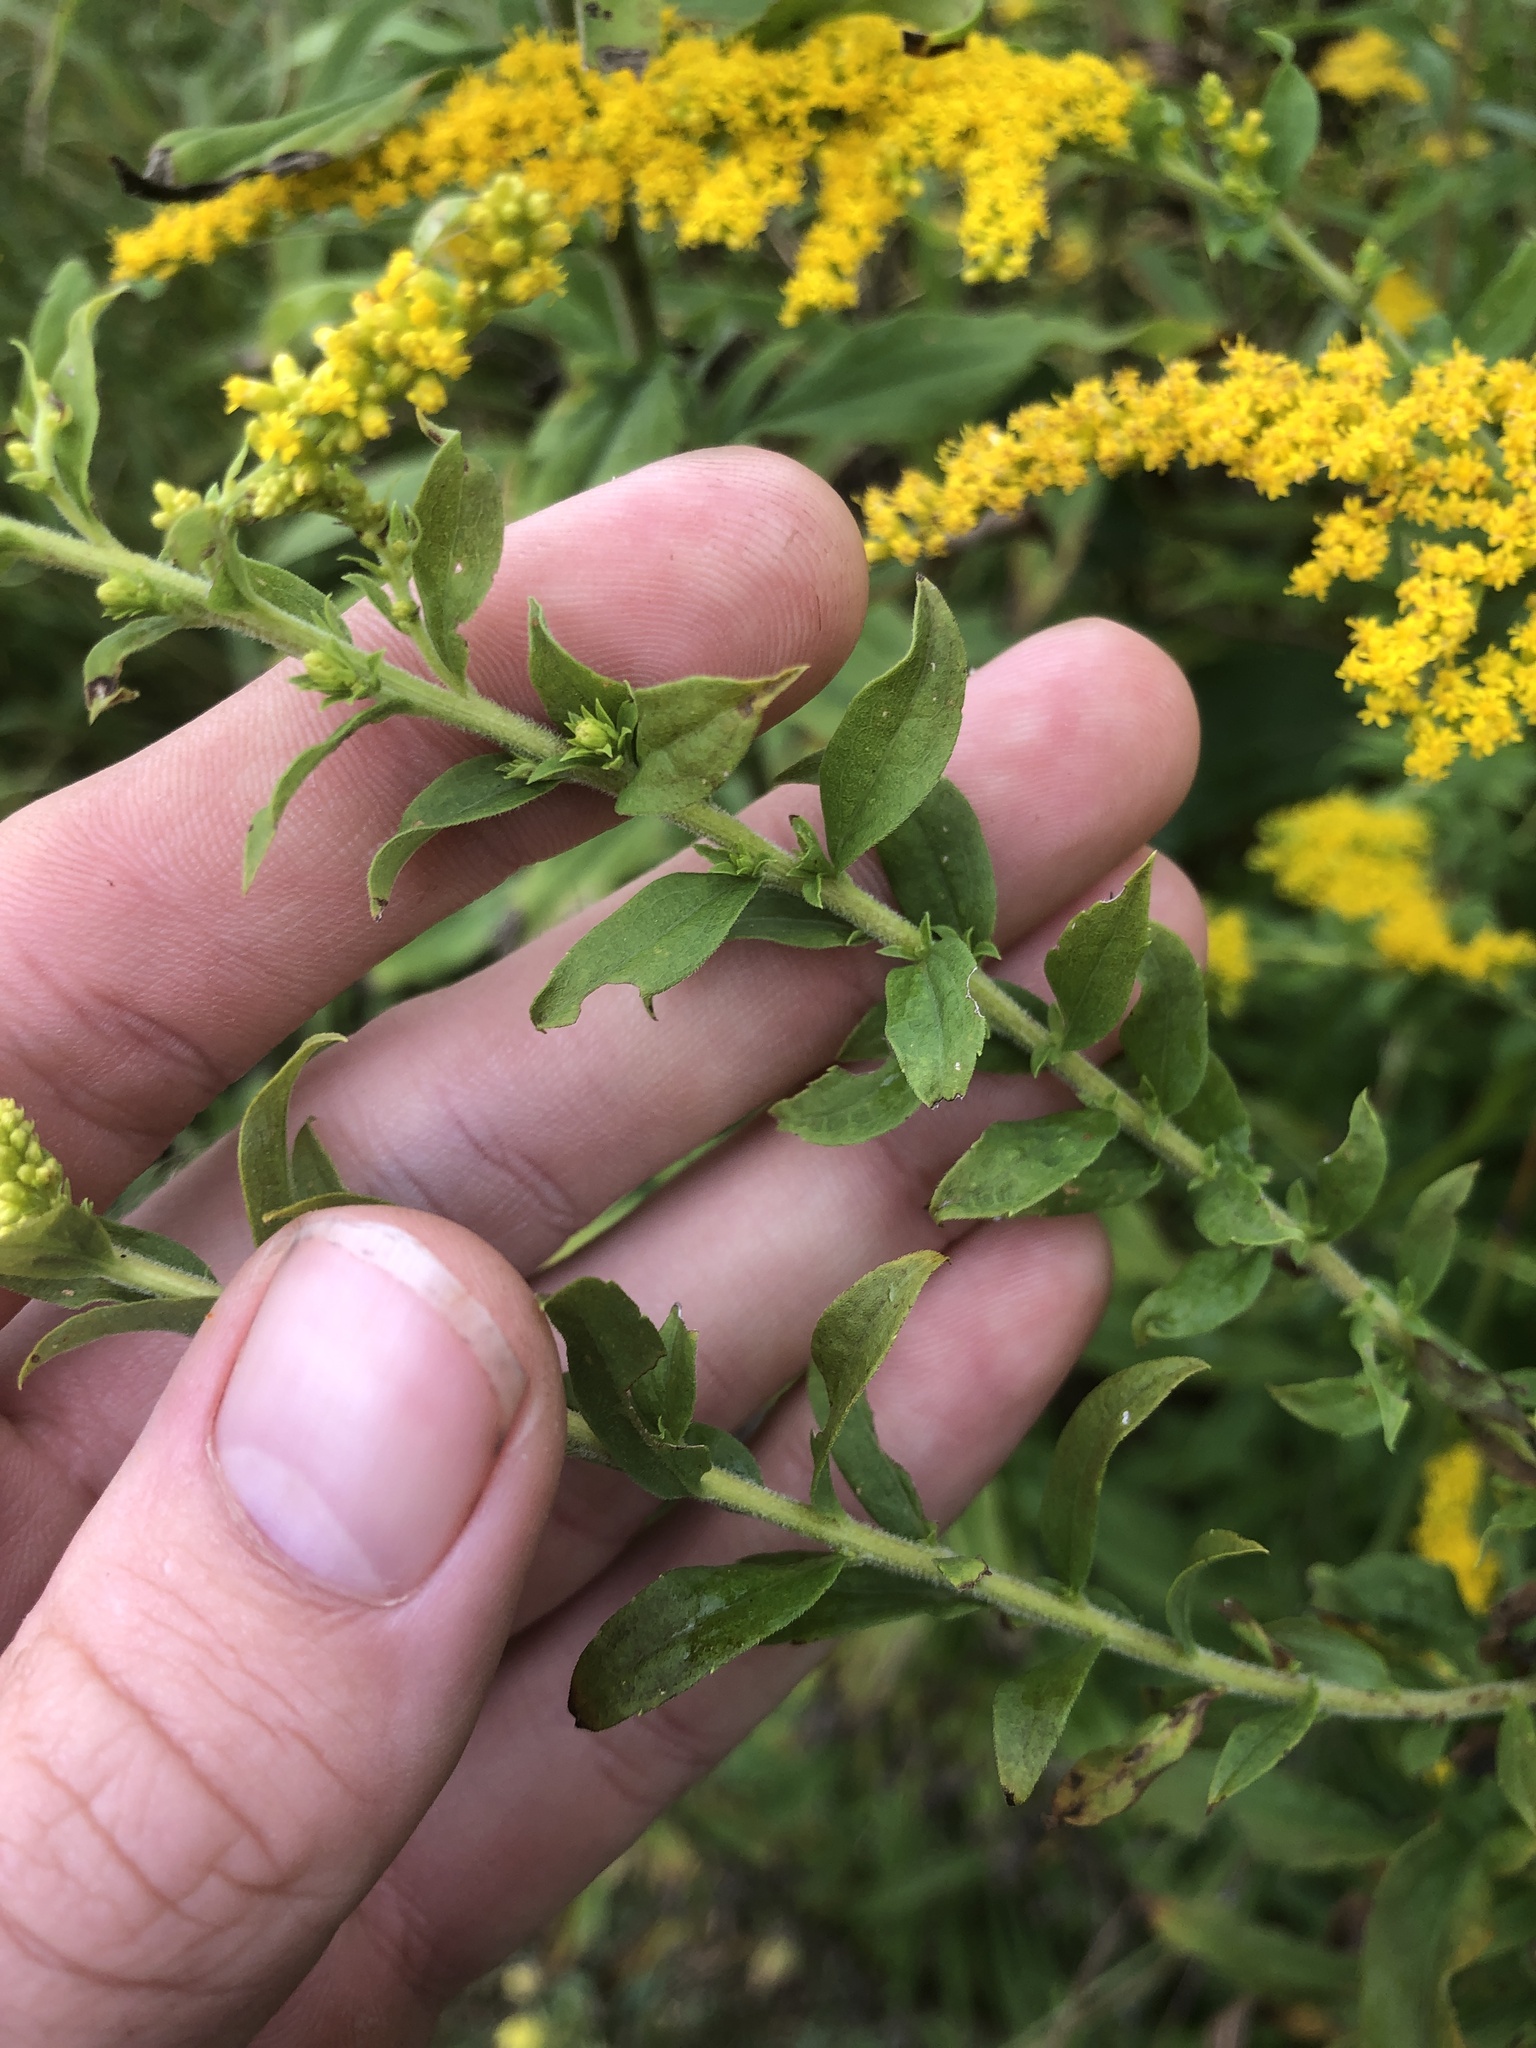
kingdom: Plantae
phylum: Tracheophyta
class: Magnoliopsida
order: Asterales
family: Asteraceae
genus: Solidago
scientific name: Solidago rugosa
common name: Rough-stemmed goldenrod
